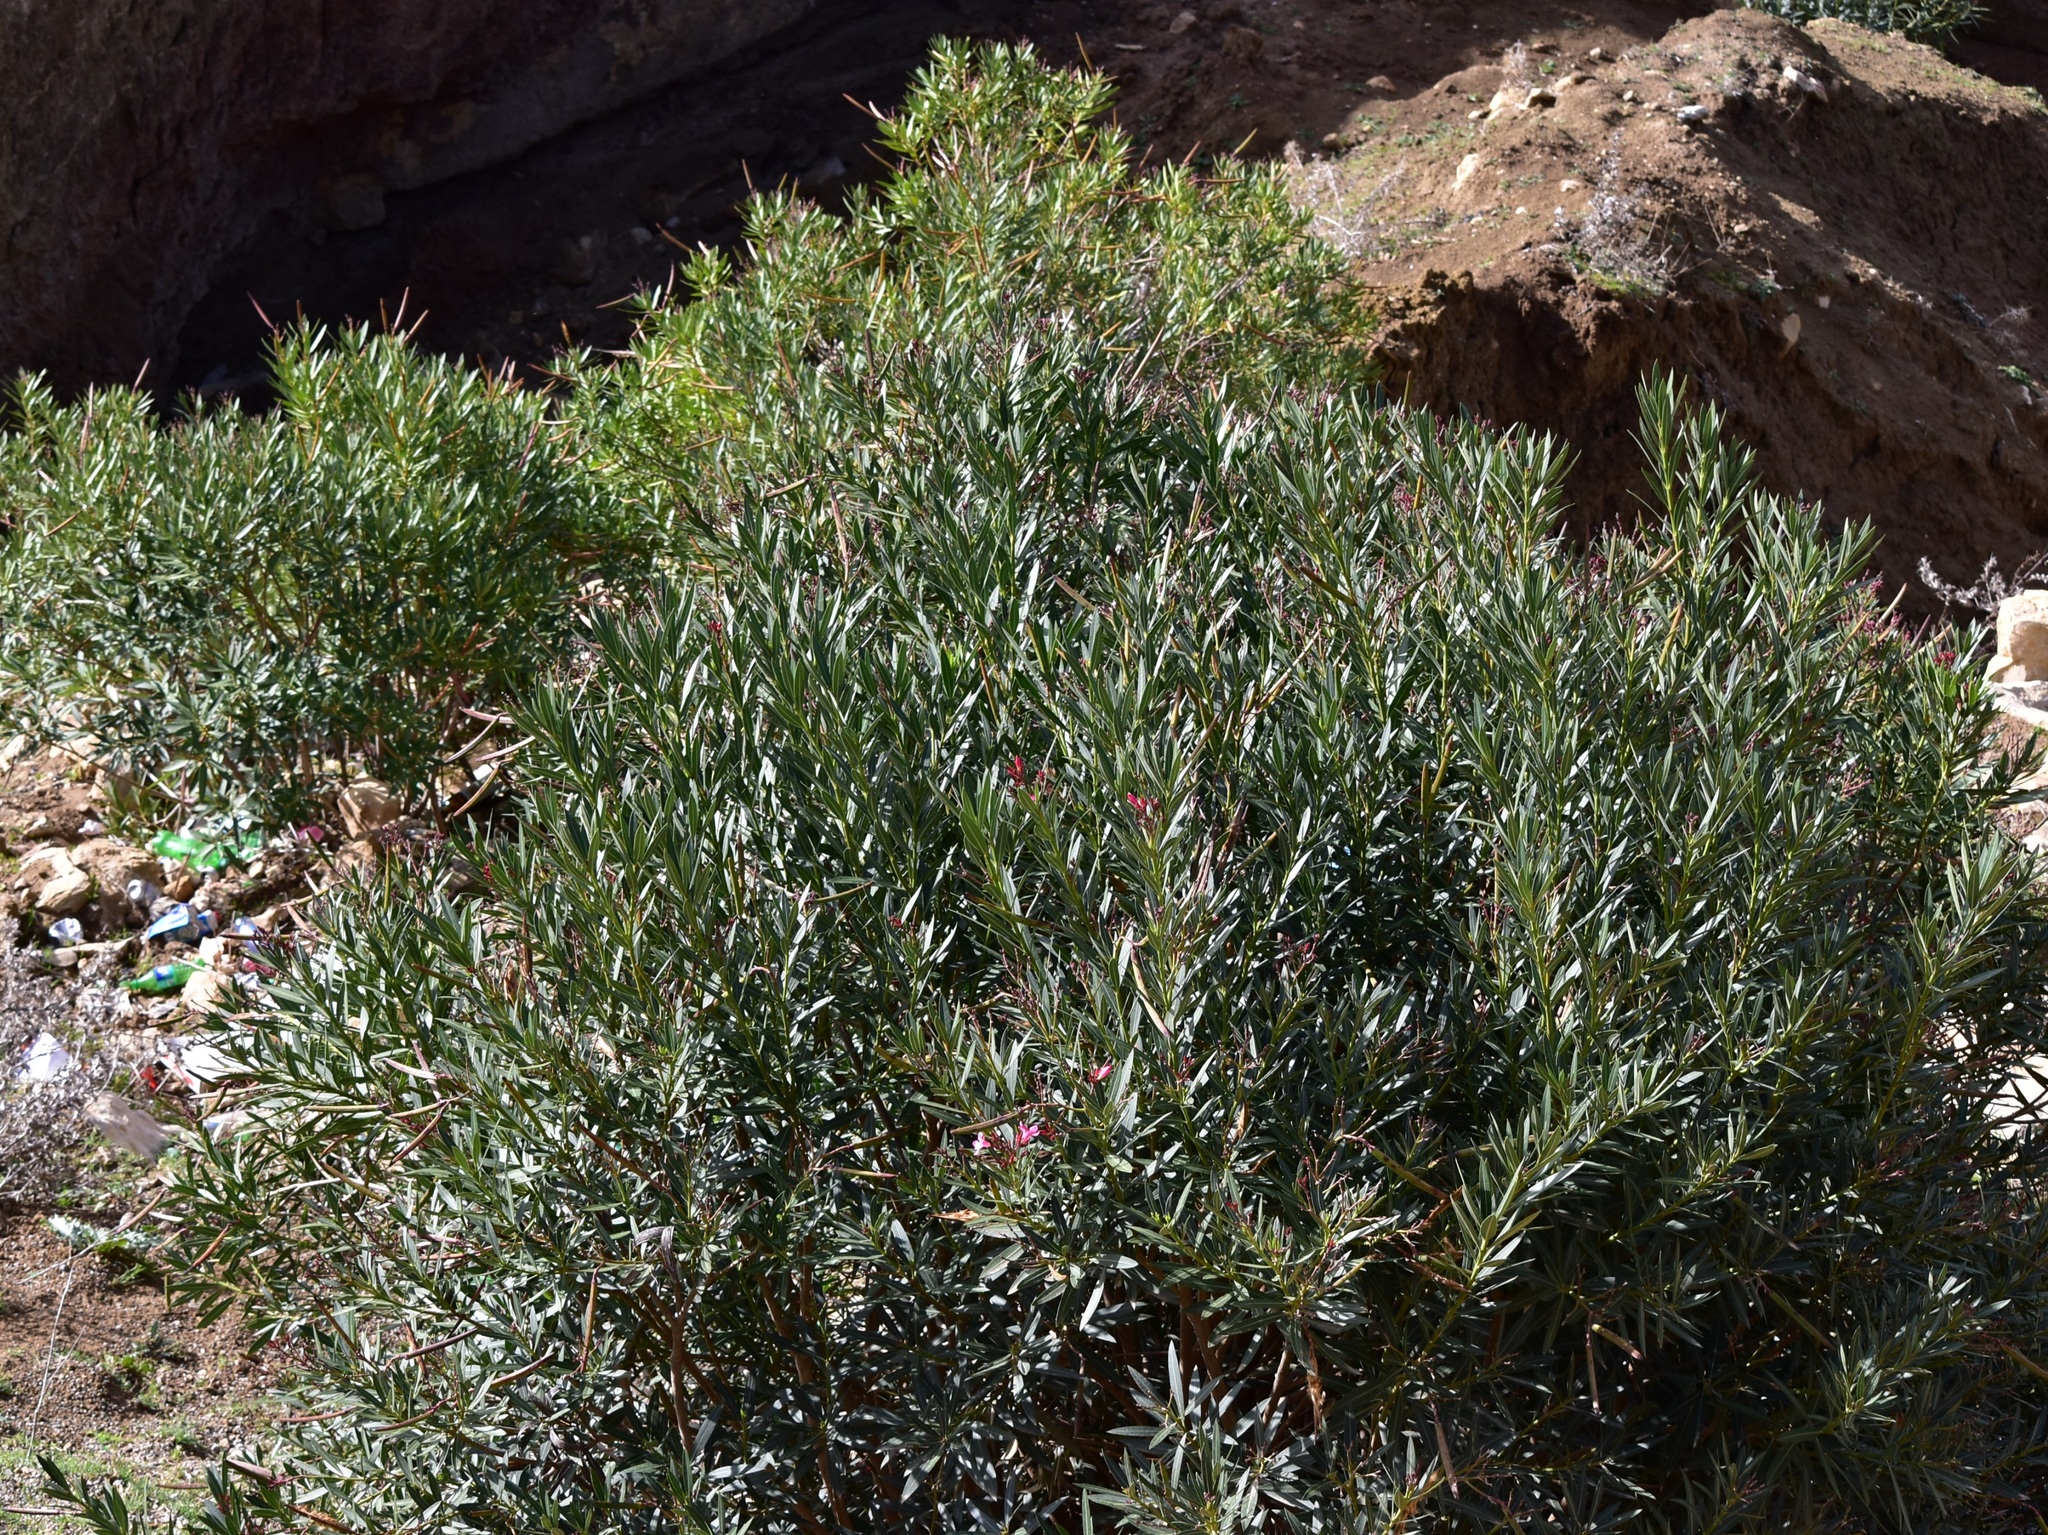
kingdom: Plantae
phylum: Tracheophyta
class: Magnoliopsida
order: Gentianales
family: Apocynaceae
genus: Nerium
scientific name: Nerium oleander
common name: Oleander
